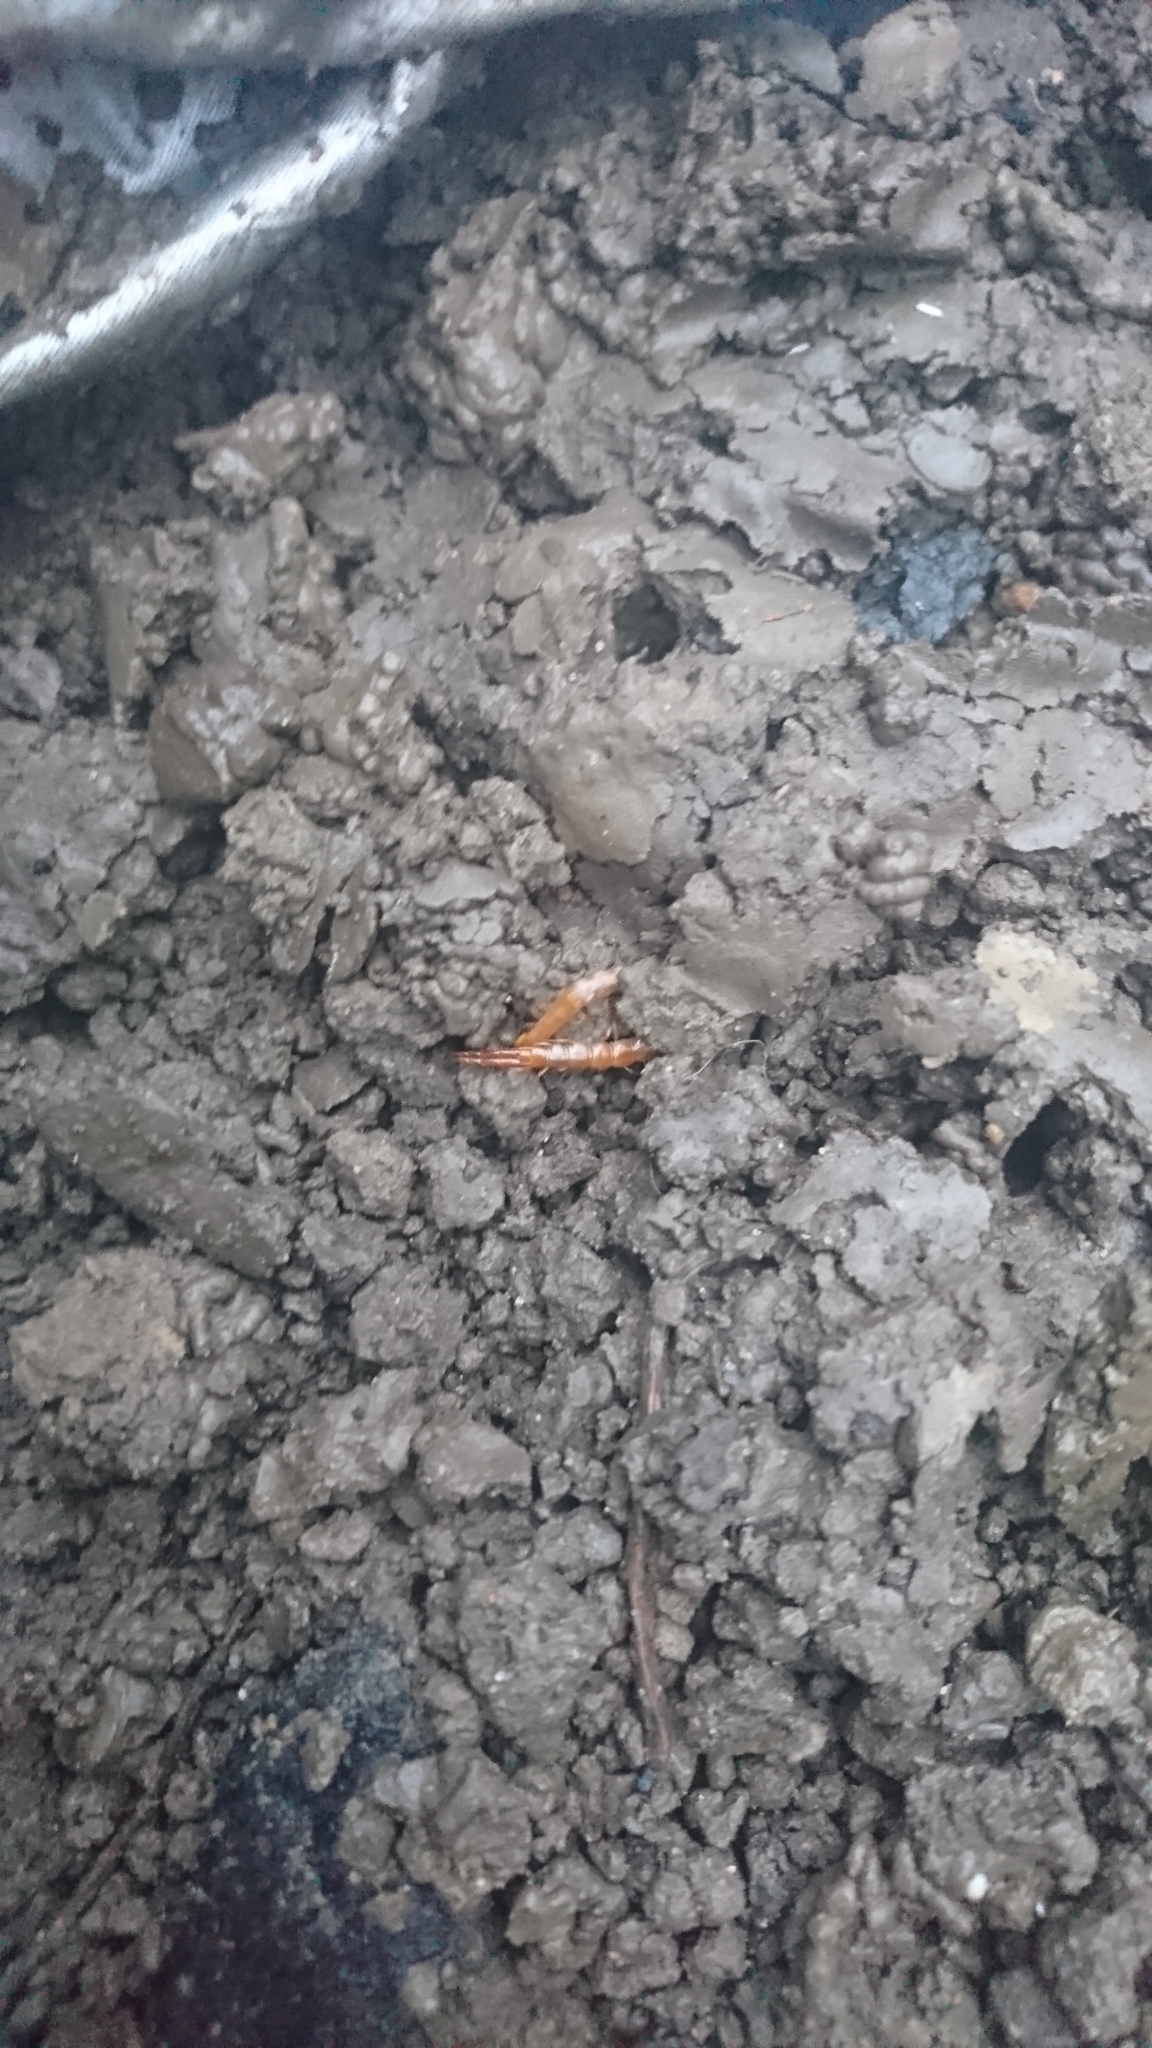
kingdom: Animalia
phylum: Arthropoda
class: Chilopoda
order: Scolopendromorpha
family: Cryptopidae
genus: Cryptops
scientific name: Cryptops
